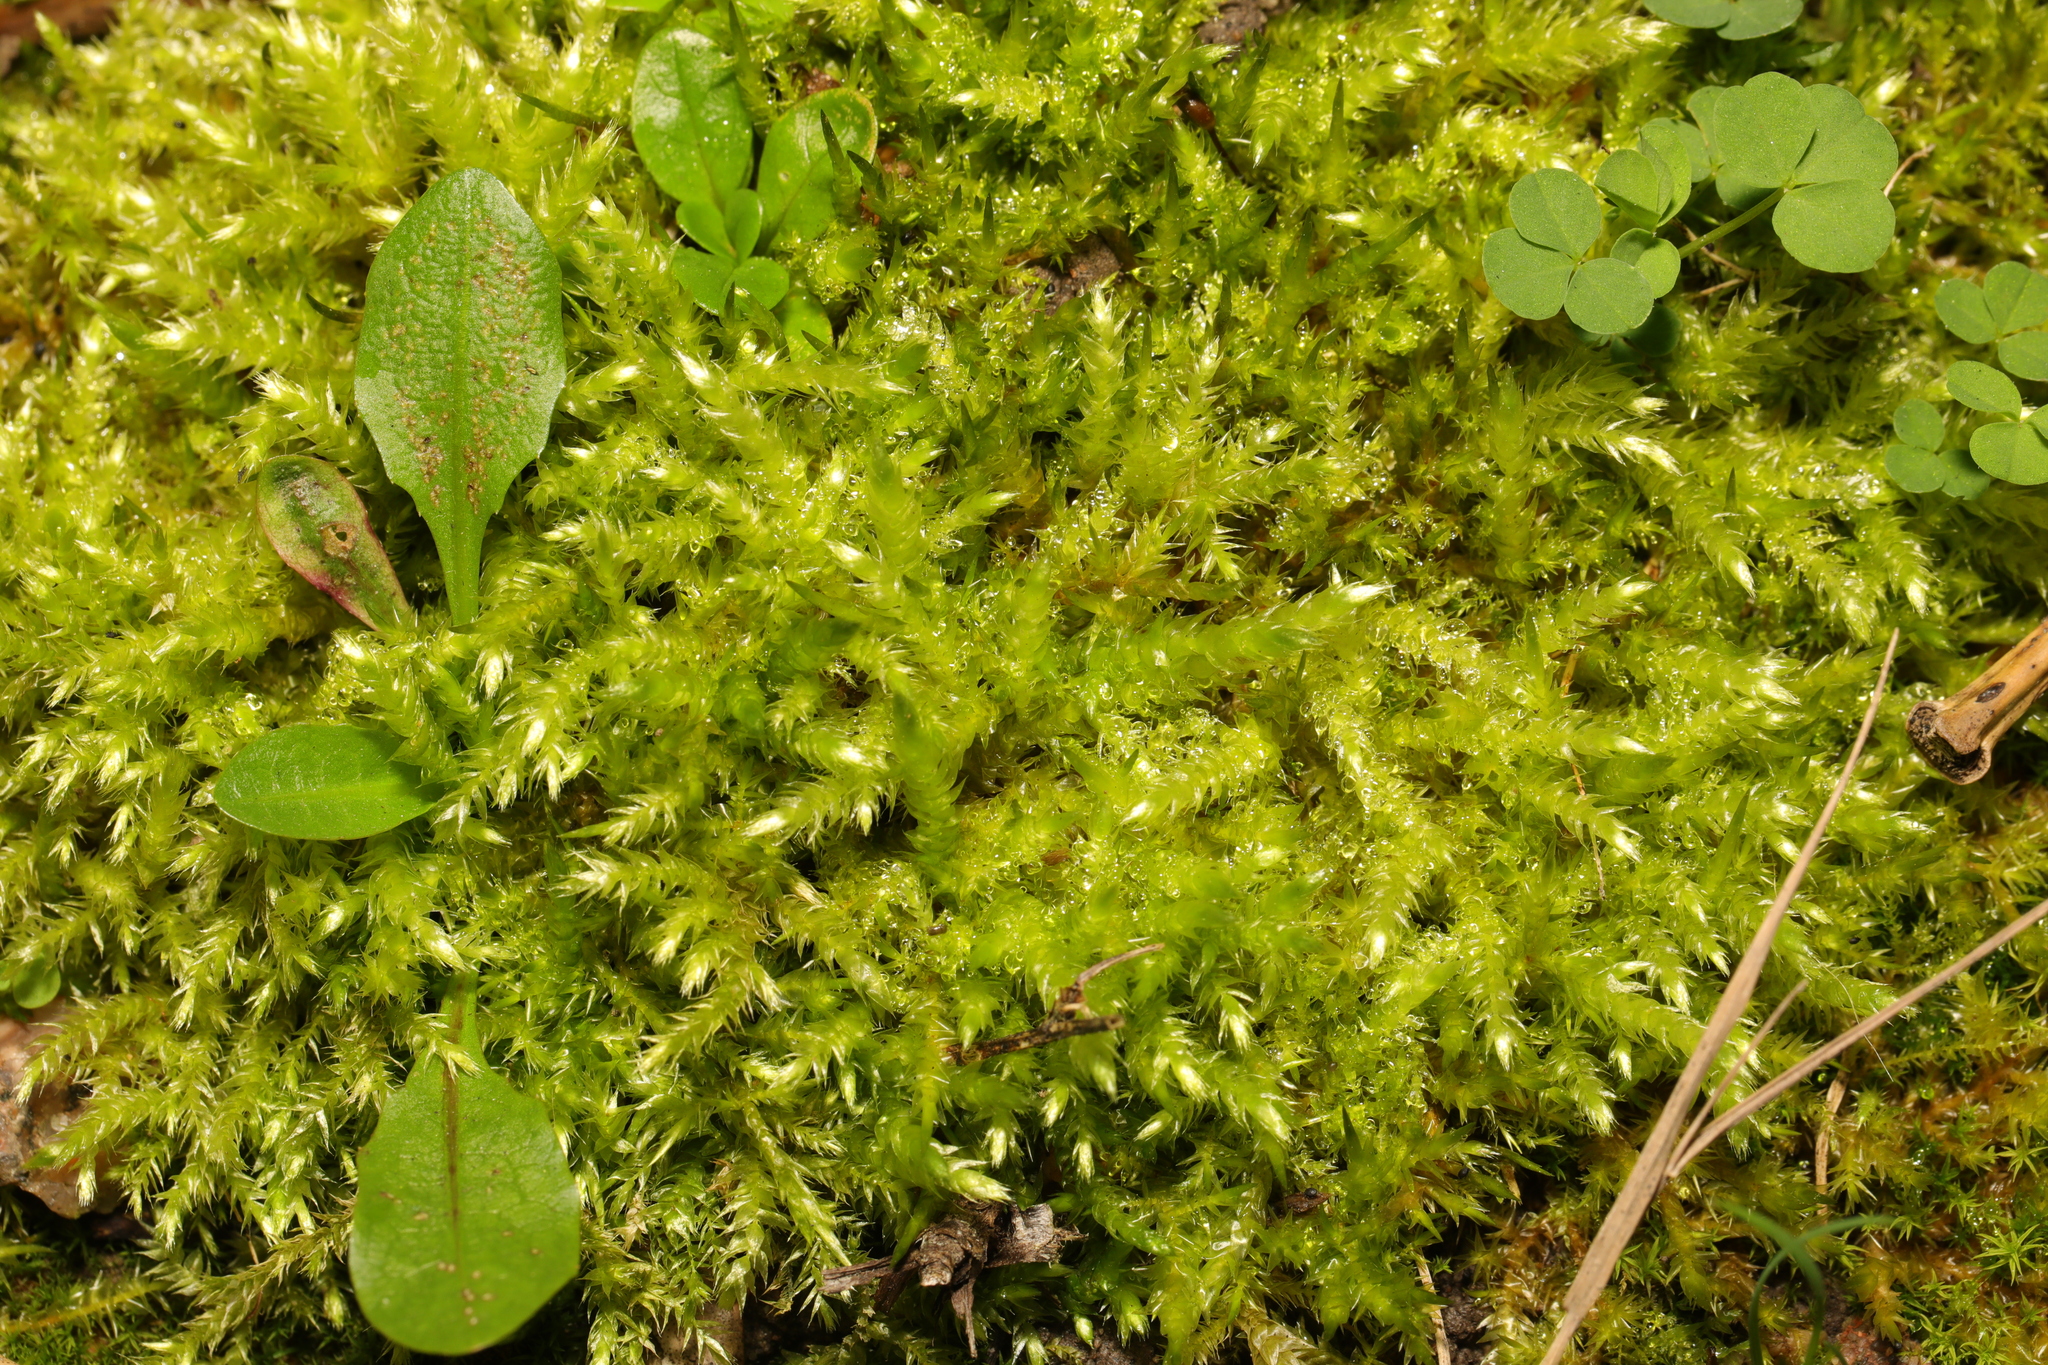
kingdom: Plantae
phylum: Bryophyta
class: Bryopsida
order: Hypnales
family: Brachytheciaceae
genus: Brachythecium
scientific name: Brachythecium rutabulum
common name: Rough-stalked feather-moss
